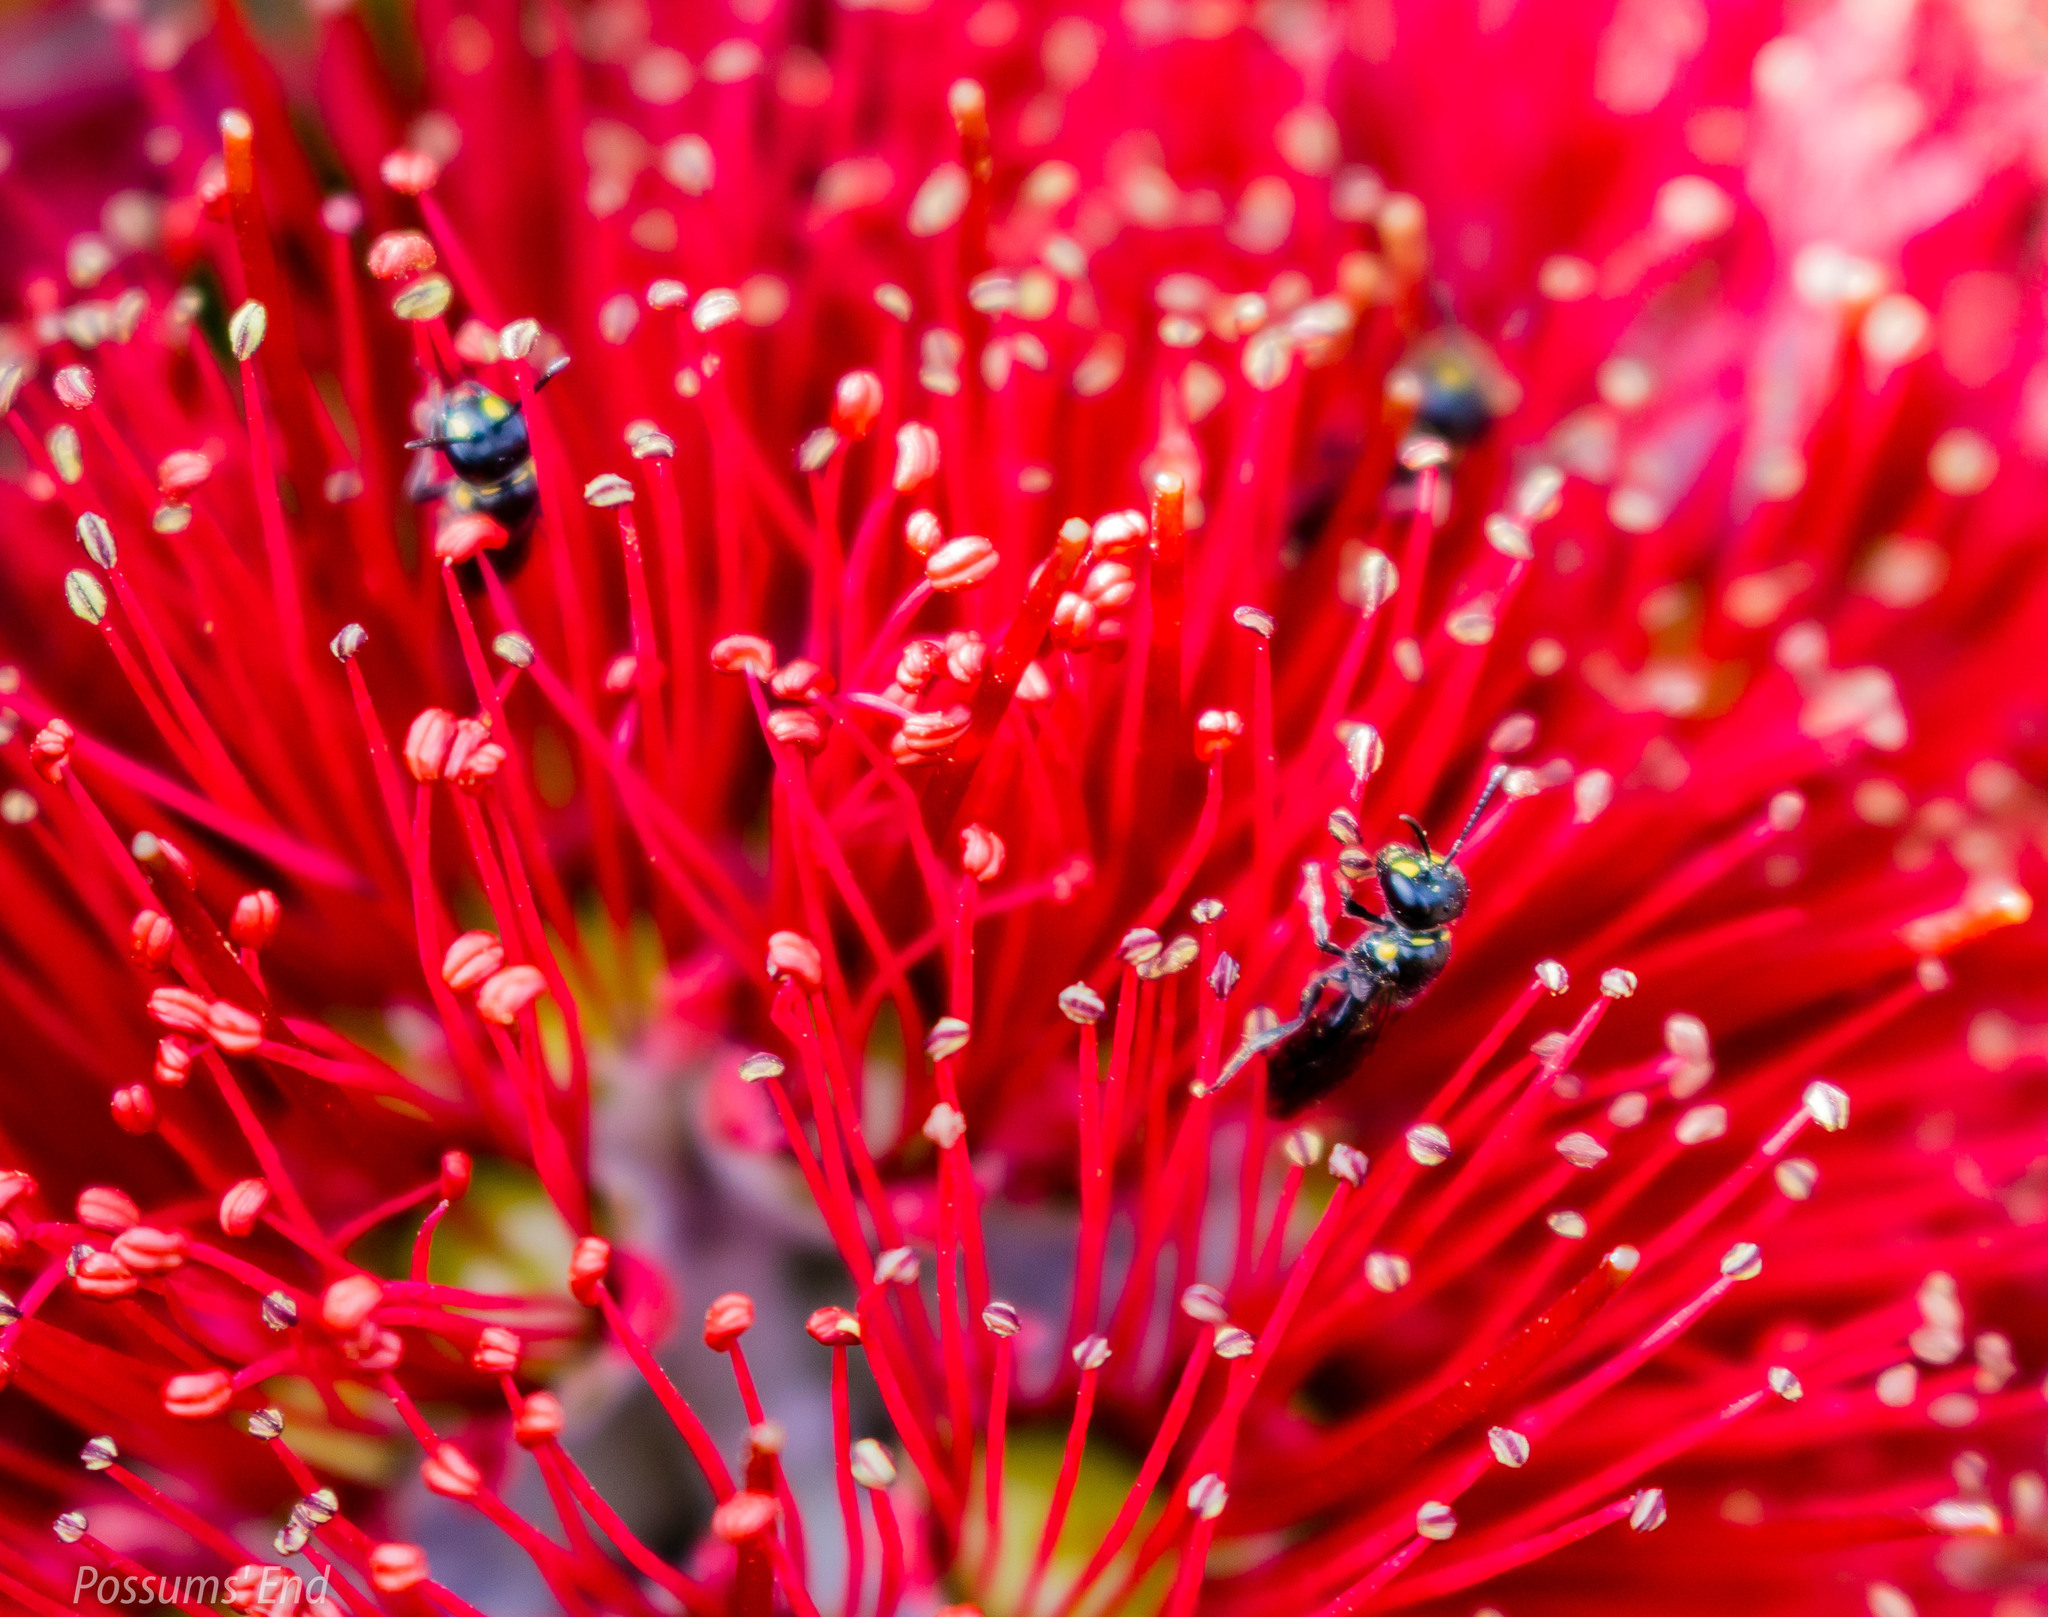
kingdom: Animalia
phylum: Arthropoda
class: Insecta
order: Hymenoptera
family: Colletidae
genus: Hylaeus
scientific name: Hylaeus agilis
